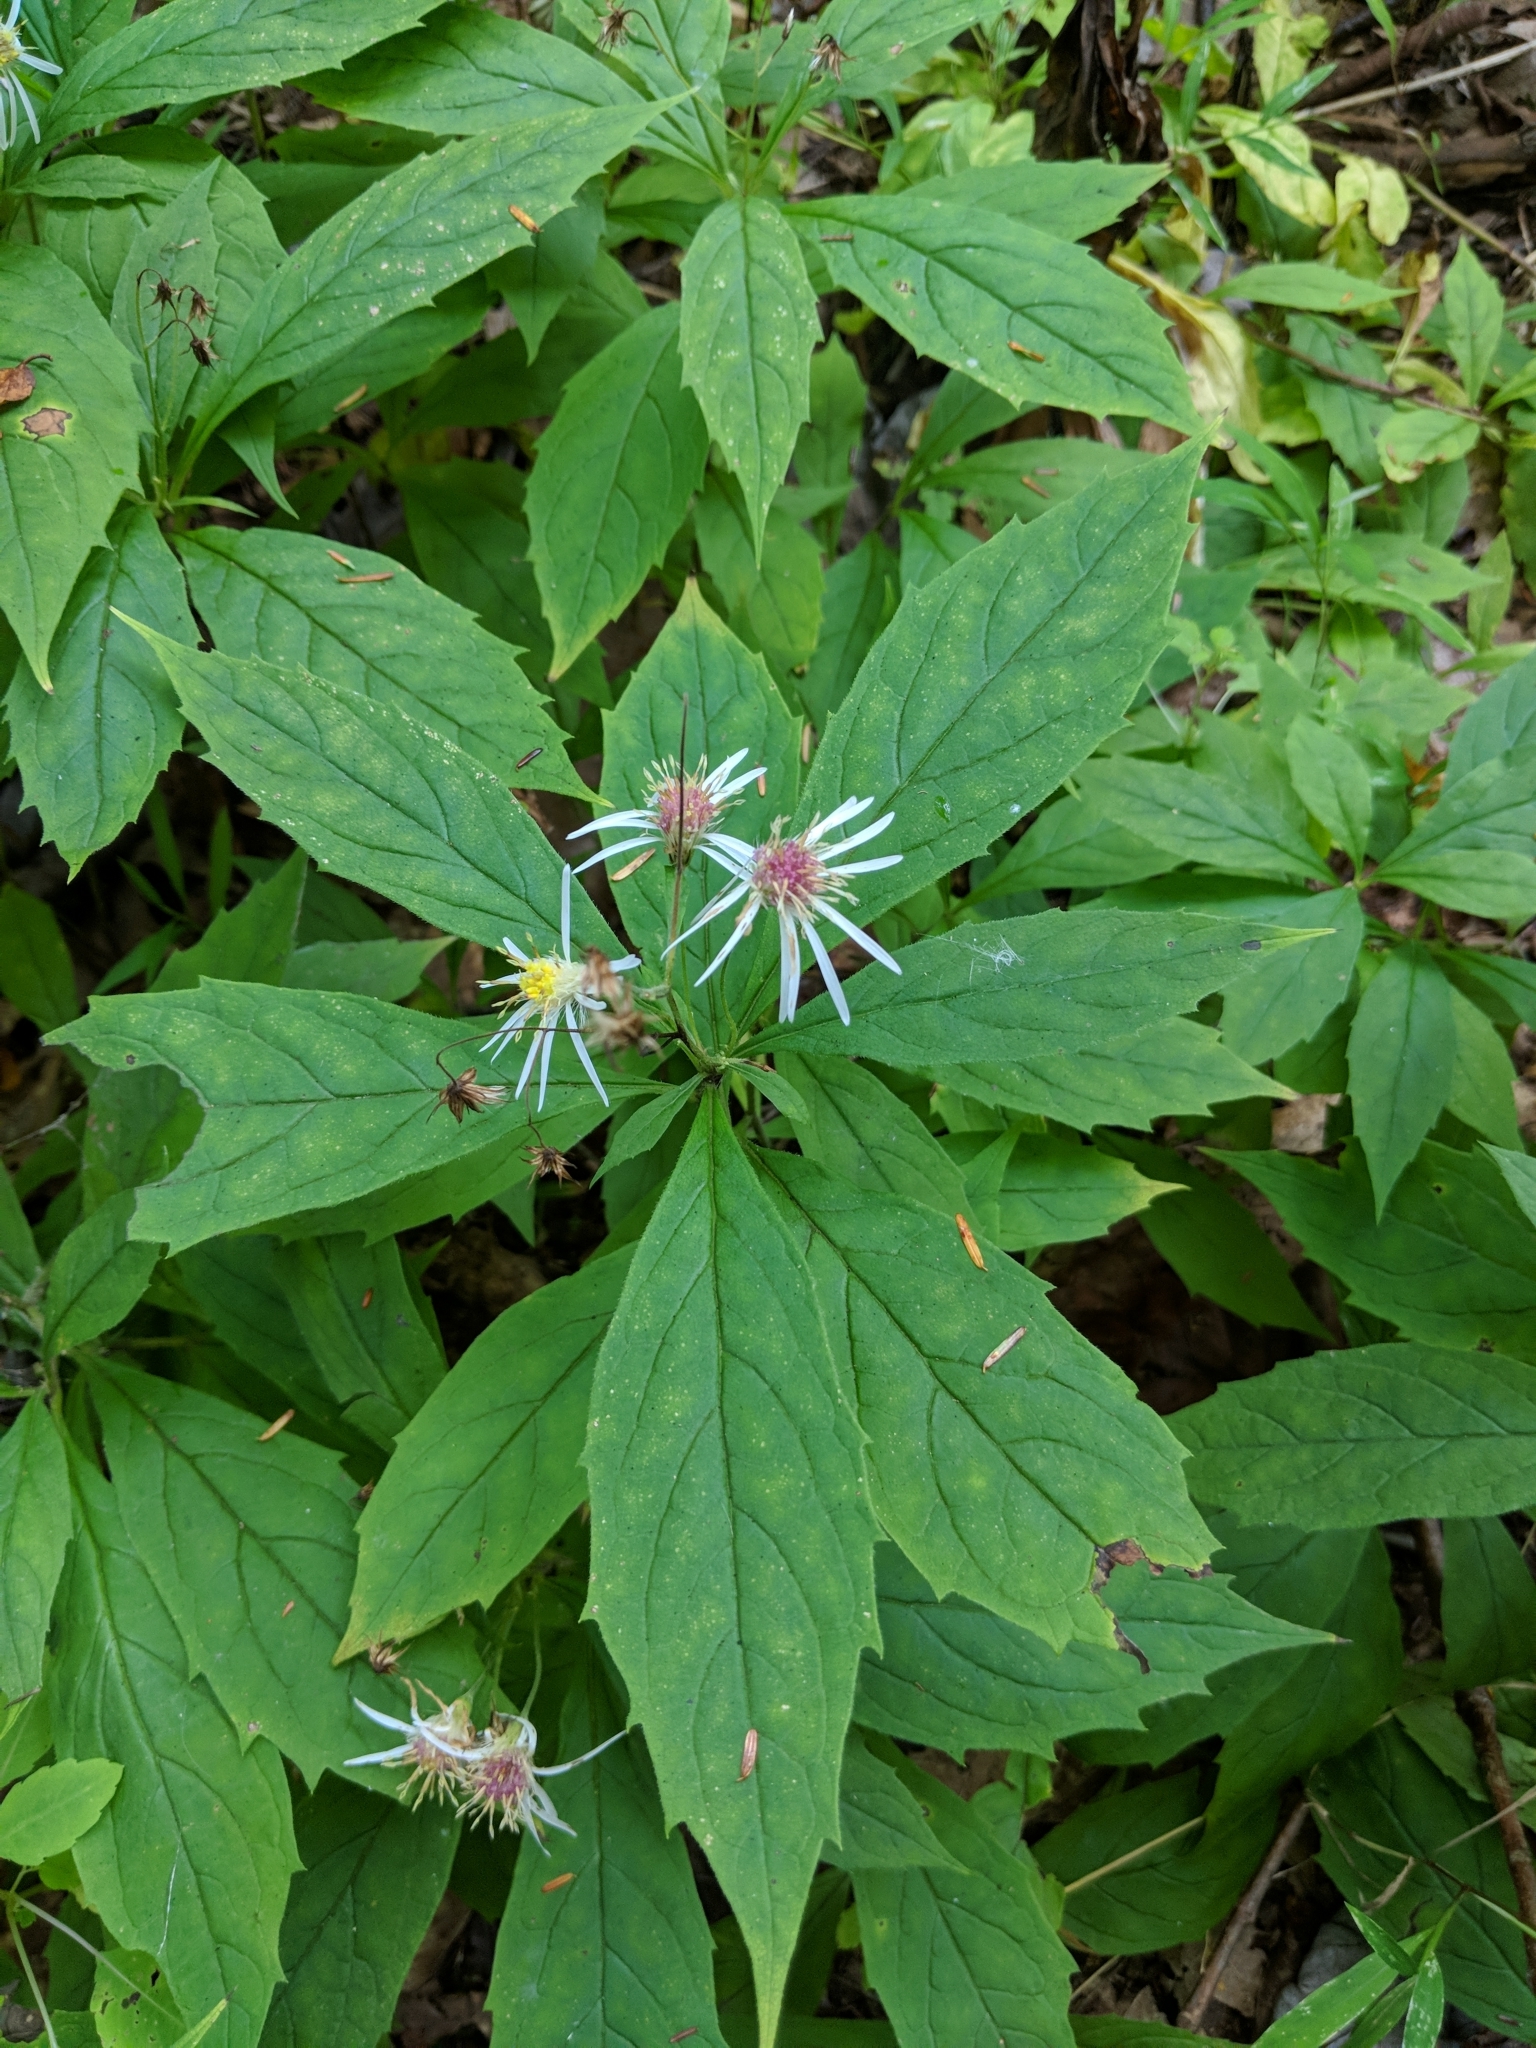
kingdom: Plantae
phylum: Tracheophyta
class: Magnoliopsida
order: Asterales
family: Asteraceae
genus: Oclemena
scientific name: Oclemena acuminata
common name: Mountain aster
